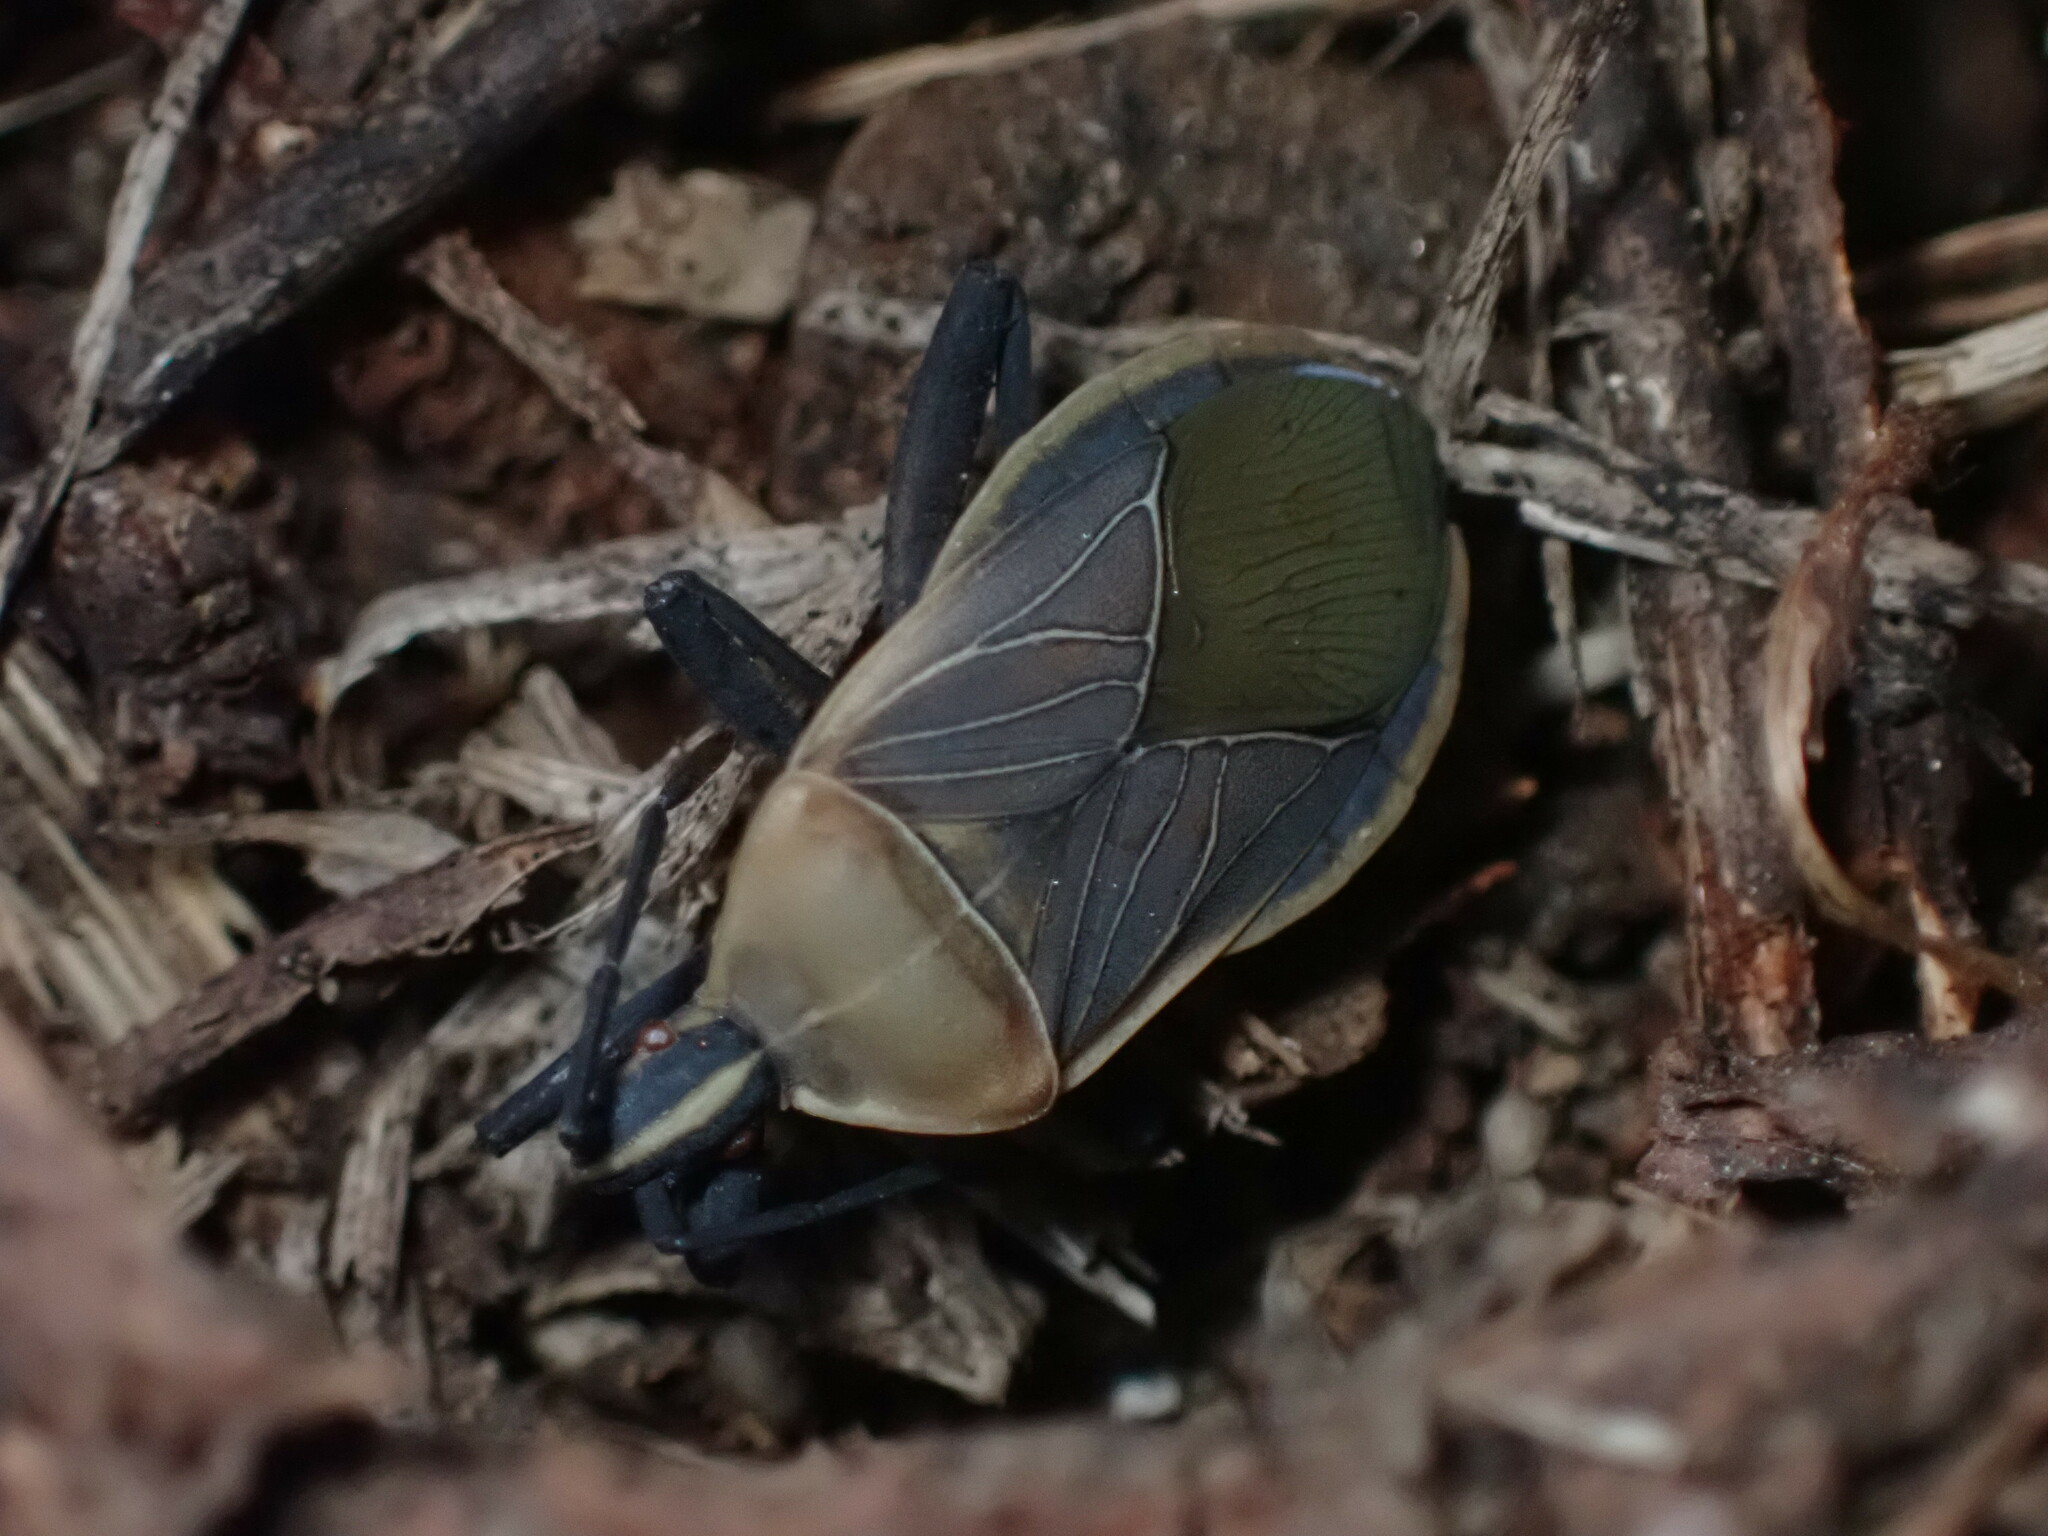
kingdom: Animalia
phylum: Arthropoda
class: Insecta
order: Hemiptera
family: Coreidae
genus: Chelinidea
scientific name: Chelinidea vittiger
